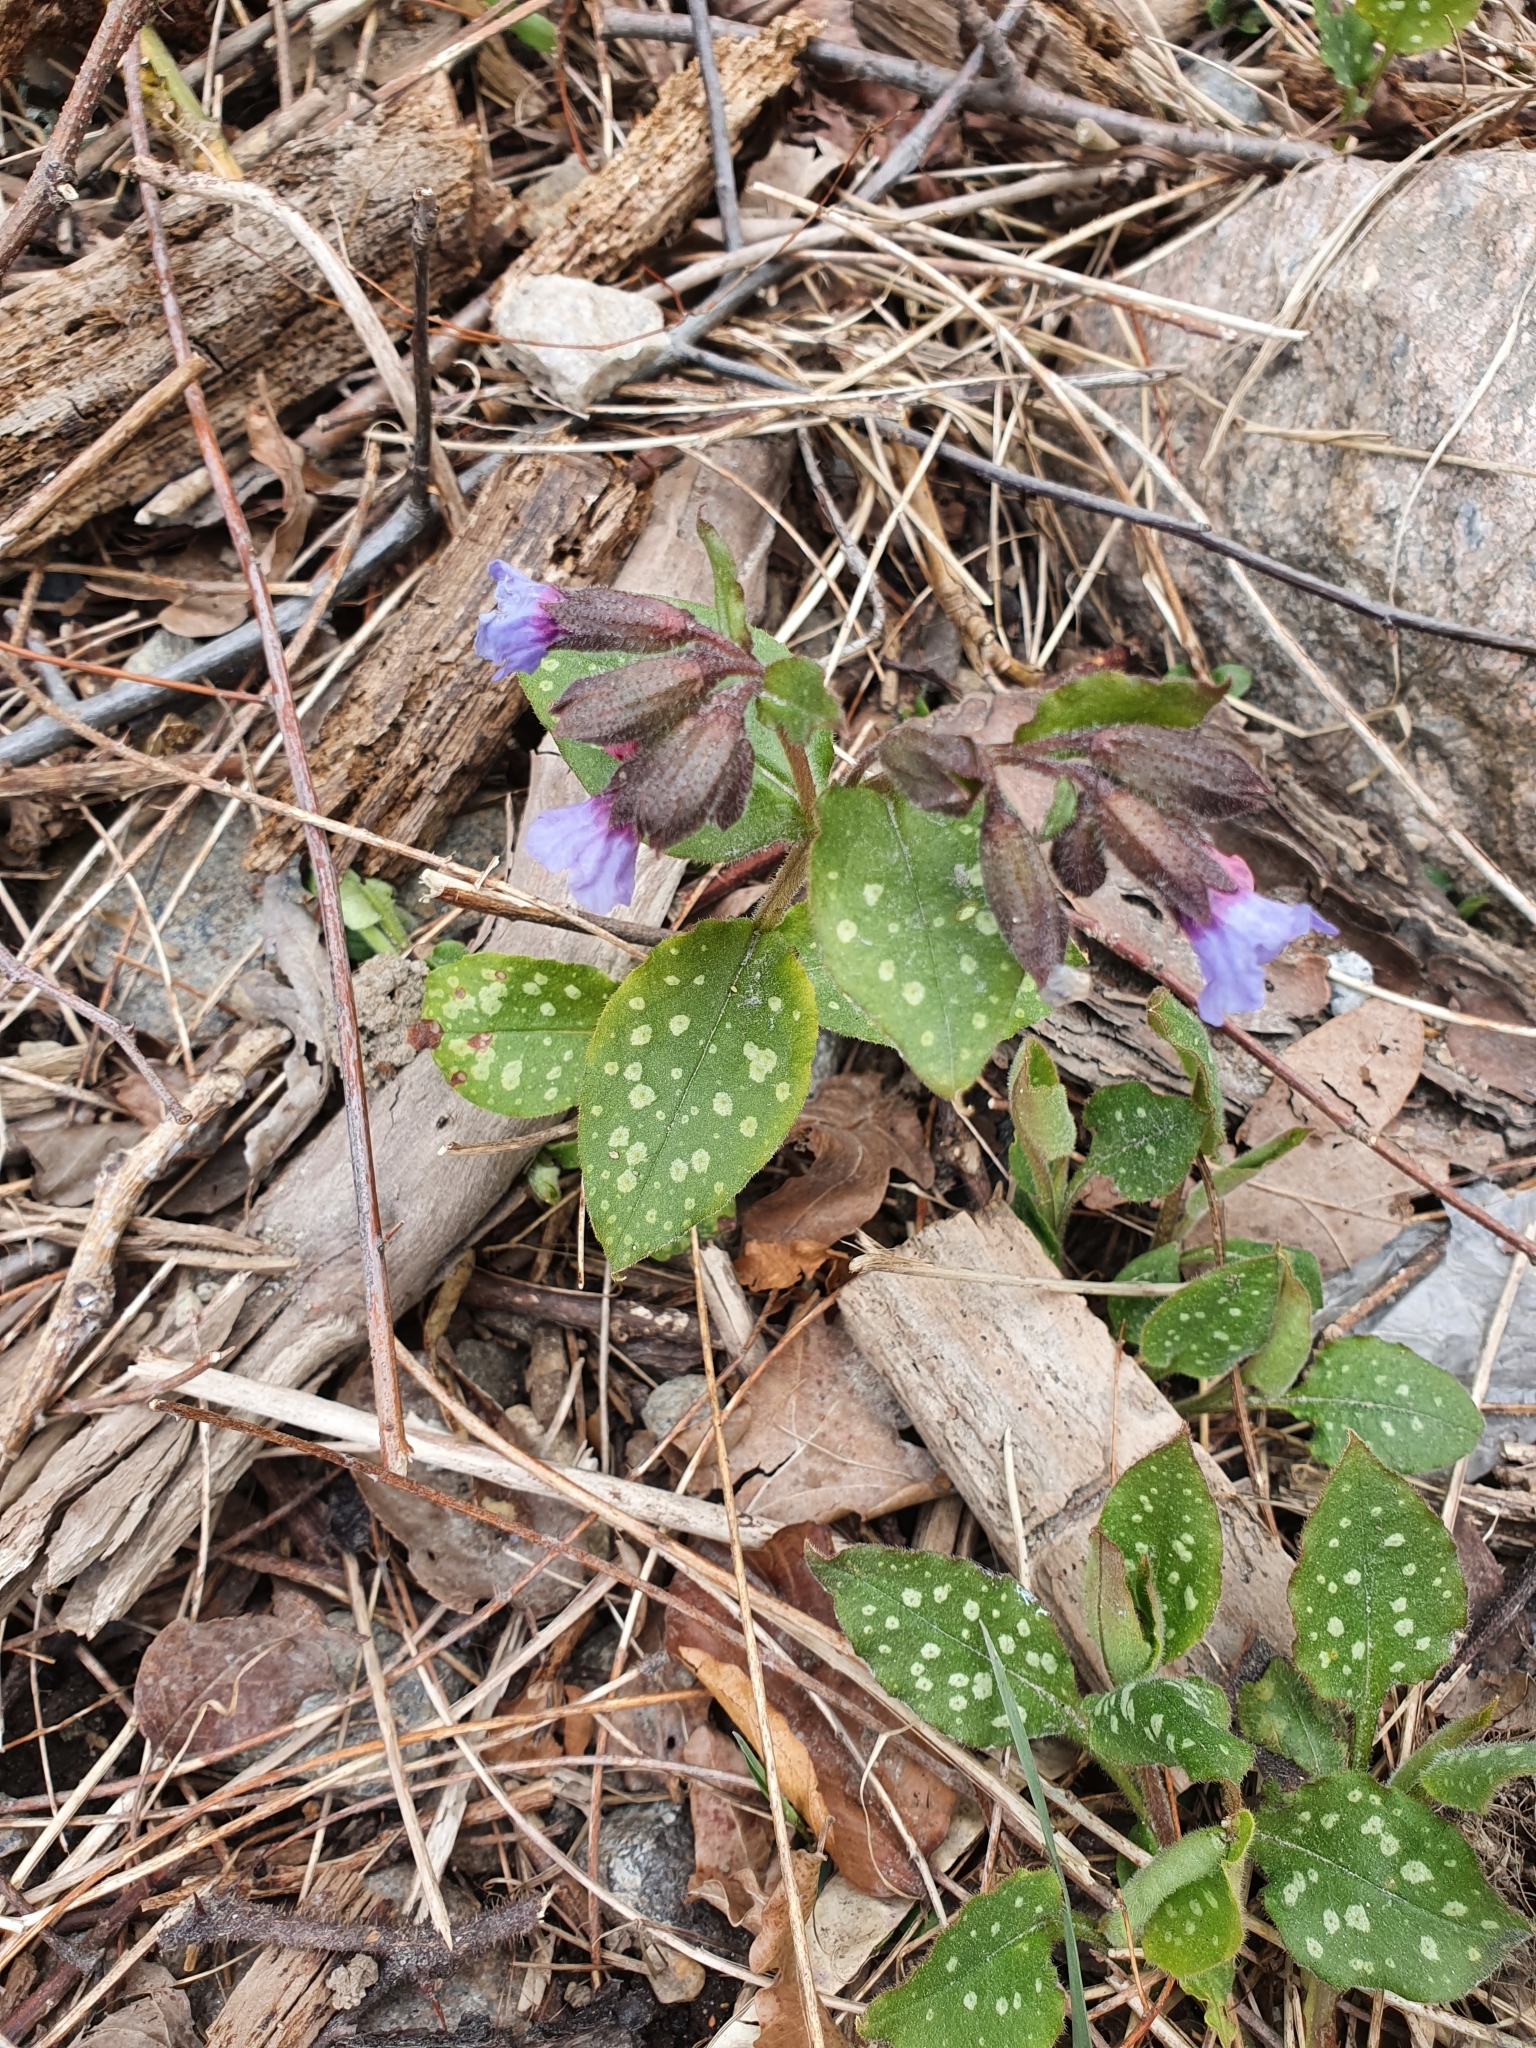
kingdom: Plantae
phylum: Tracheophyta
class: Magnoliopsida
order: Boraginales
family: Boraginaceae
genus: Pulmonaria
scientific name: Pulmonaria officinalis
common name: Lungwort
